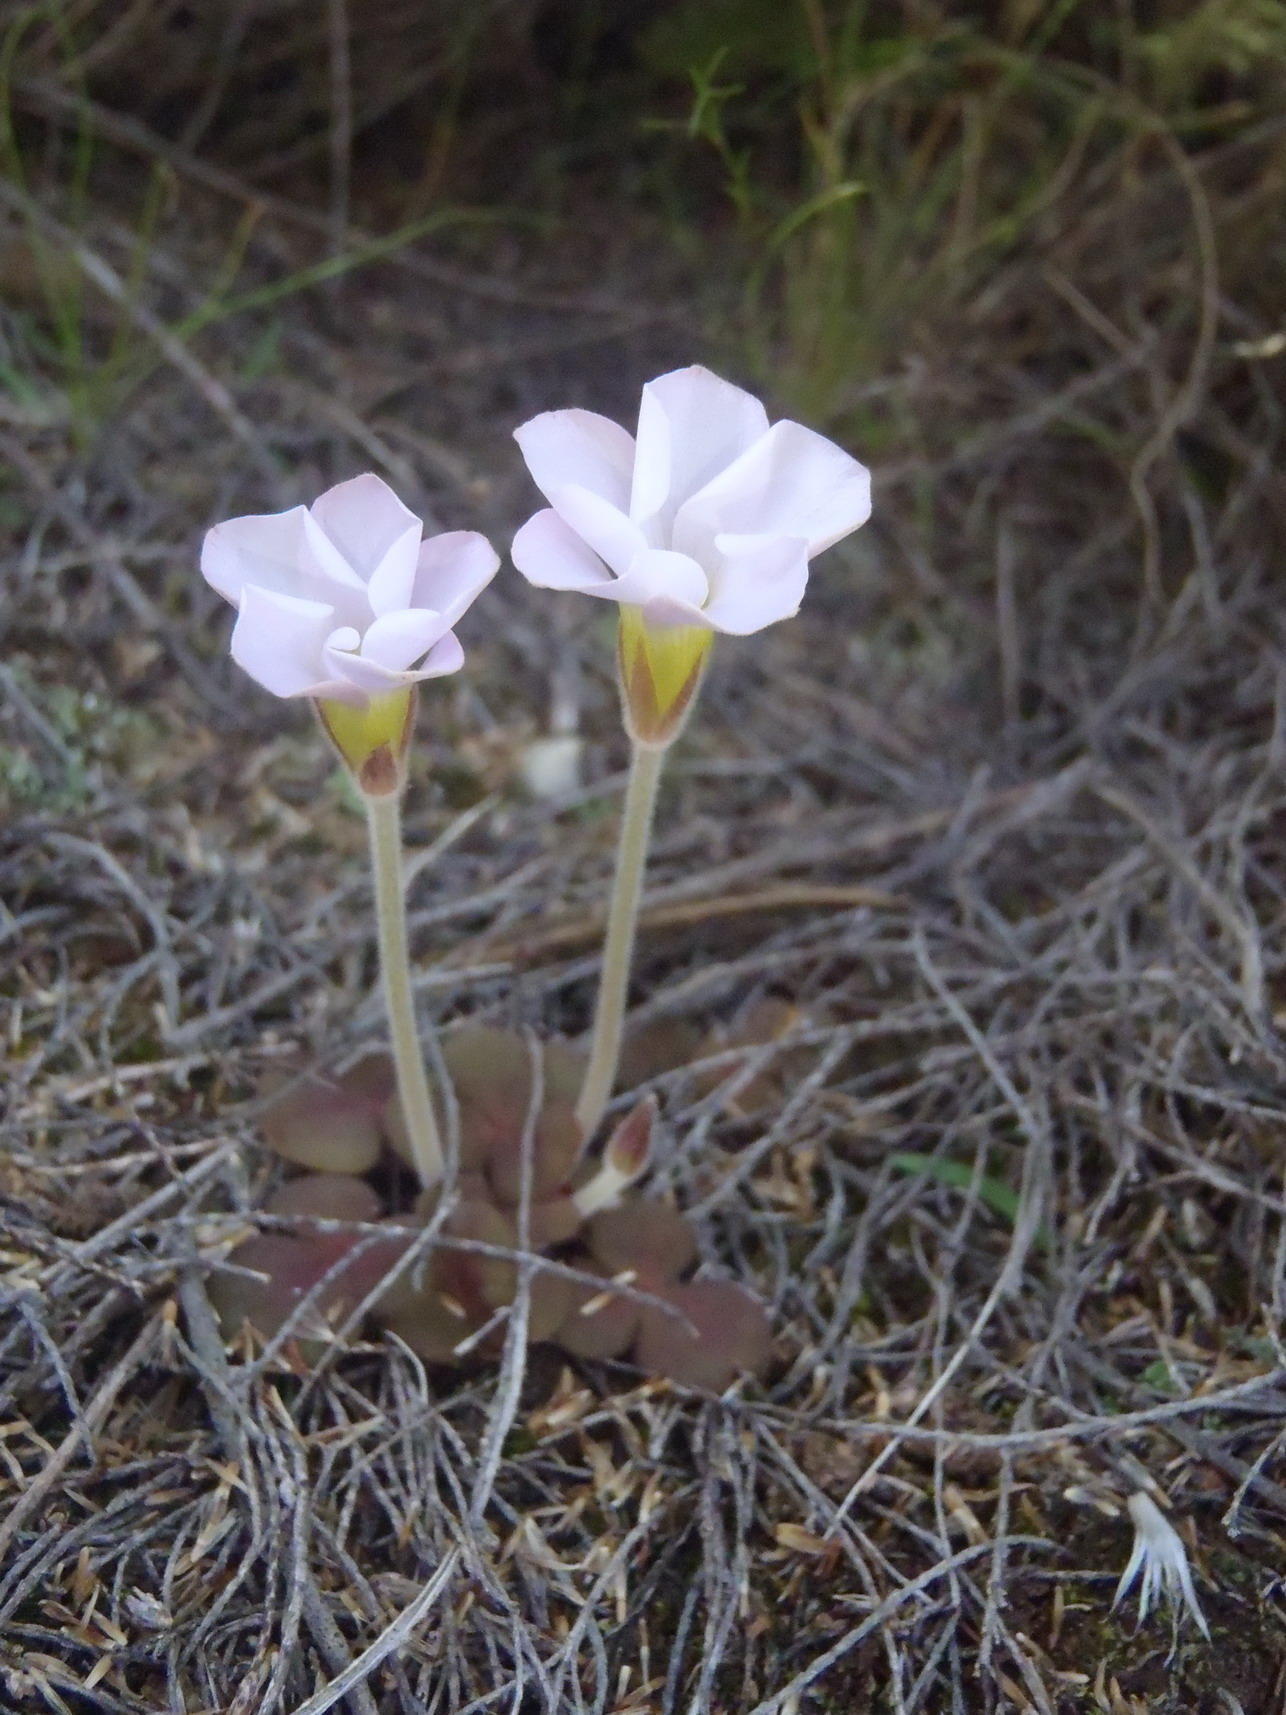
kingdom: Plantae
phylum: Tracheophyta
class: Magnoliopsida
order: Oxalidales
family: Oxalidaceae
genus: Oxalis
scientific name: Oxalis algoensis
